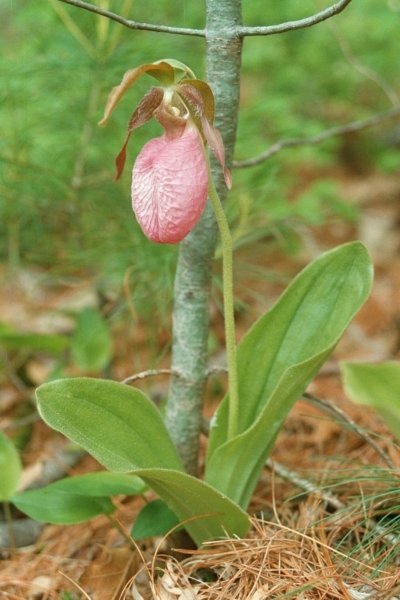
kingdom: Plantae
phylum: Tracheophyta
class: Liliopsida
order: Asparagales
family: Orchidaceae
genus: Cypripedium
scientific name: Cypripedium acaule
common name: Pink lady's-slipper
